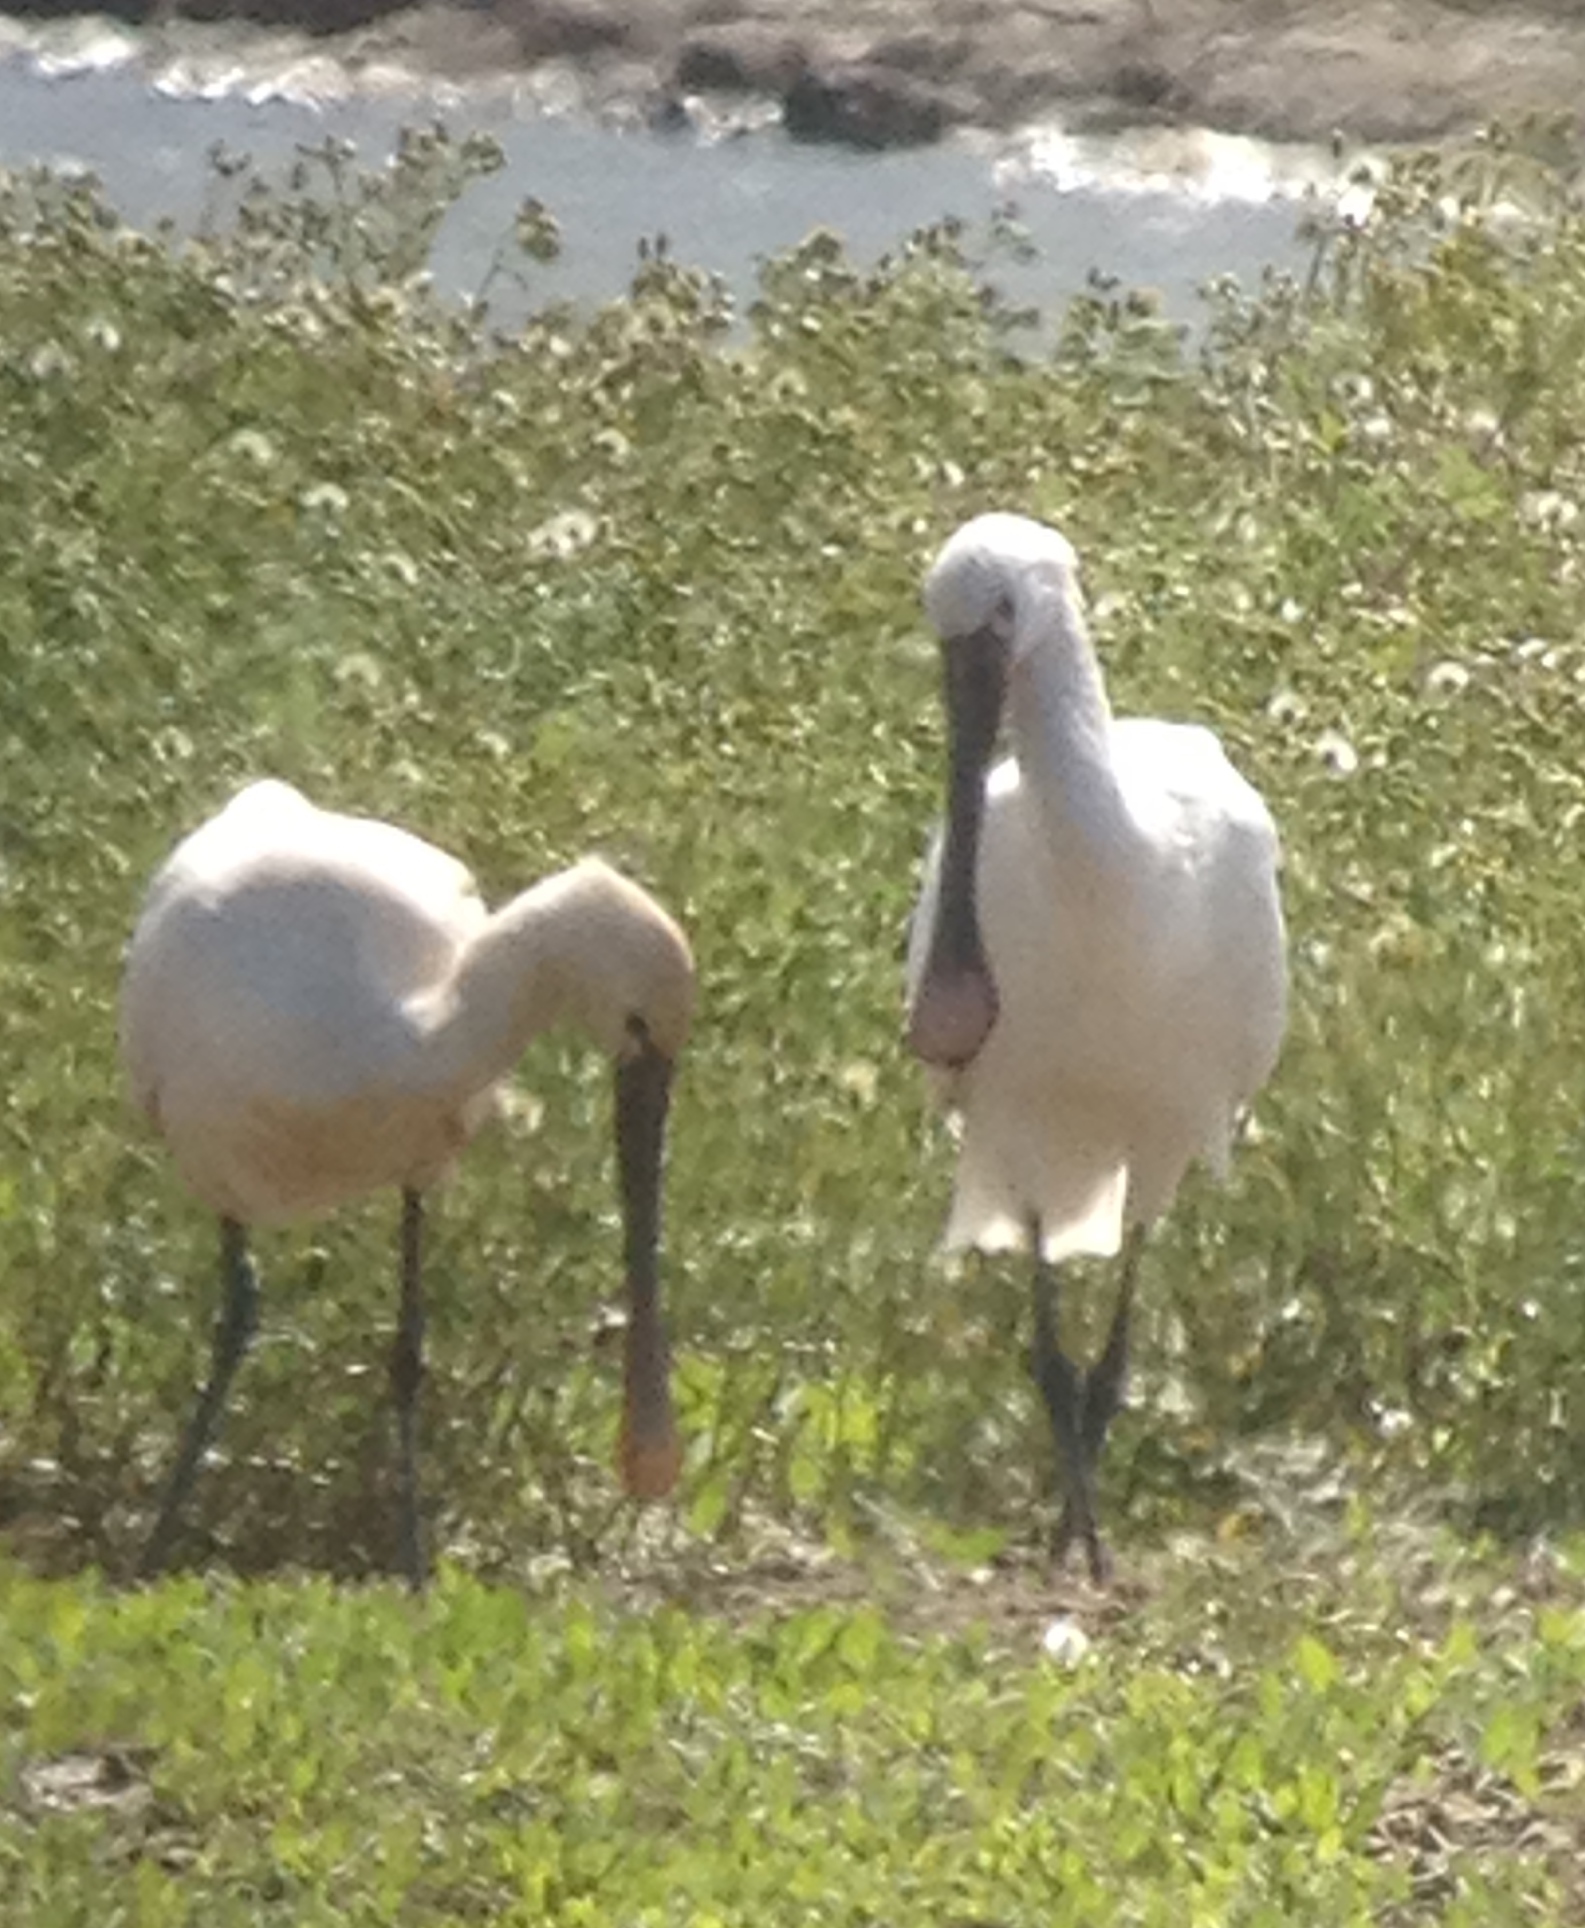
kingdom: Animalia
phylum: Chordata
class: Aves
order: Pelecaniformes
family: Threskiornithidae
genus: Platalea
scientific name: Platalea leucorodia
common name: Eurasian spoonbill
